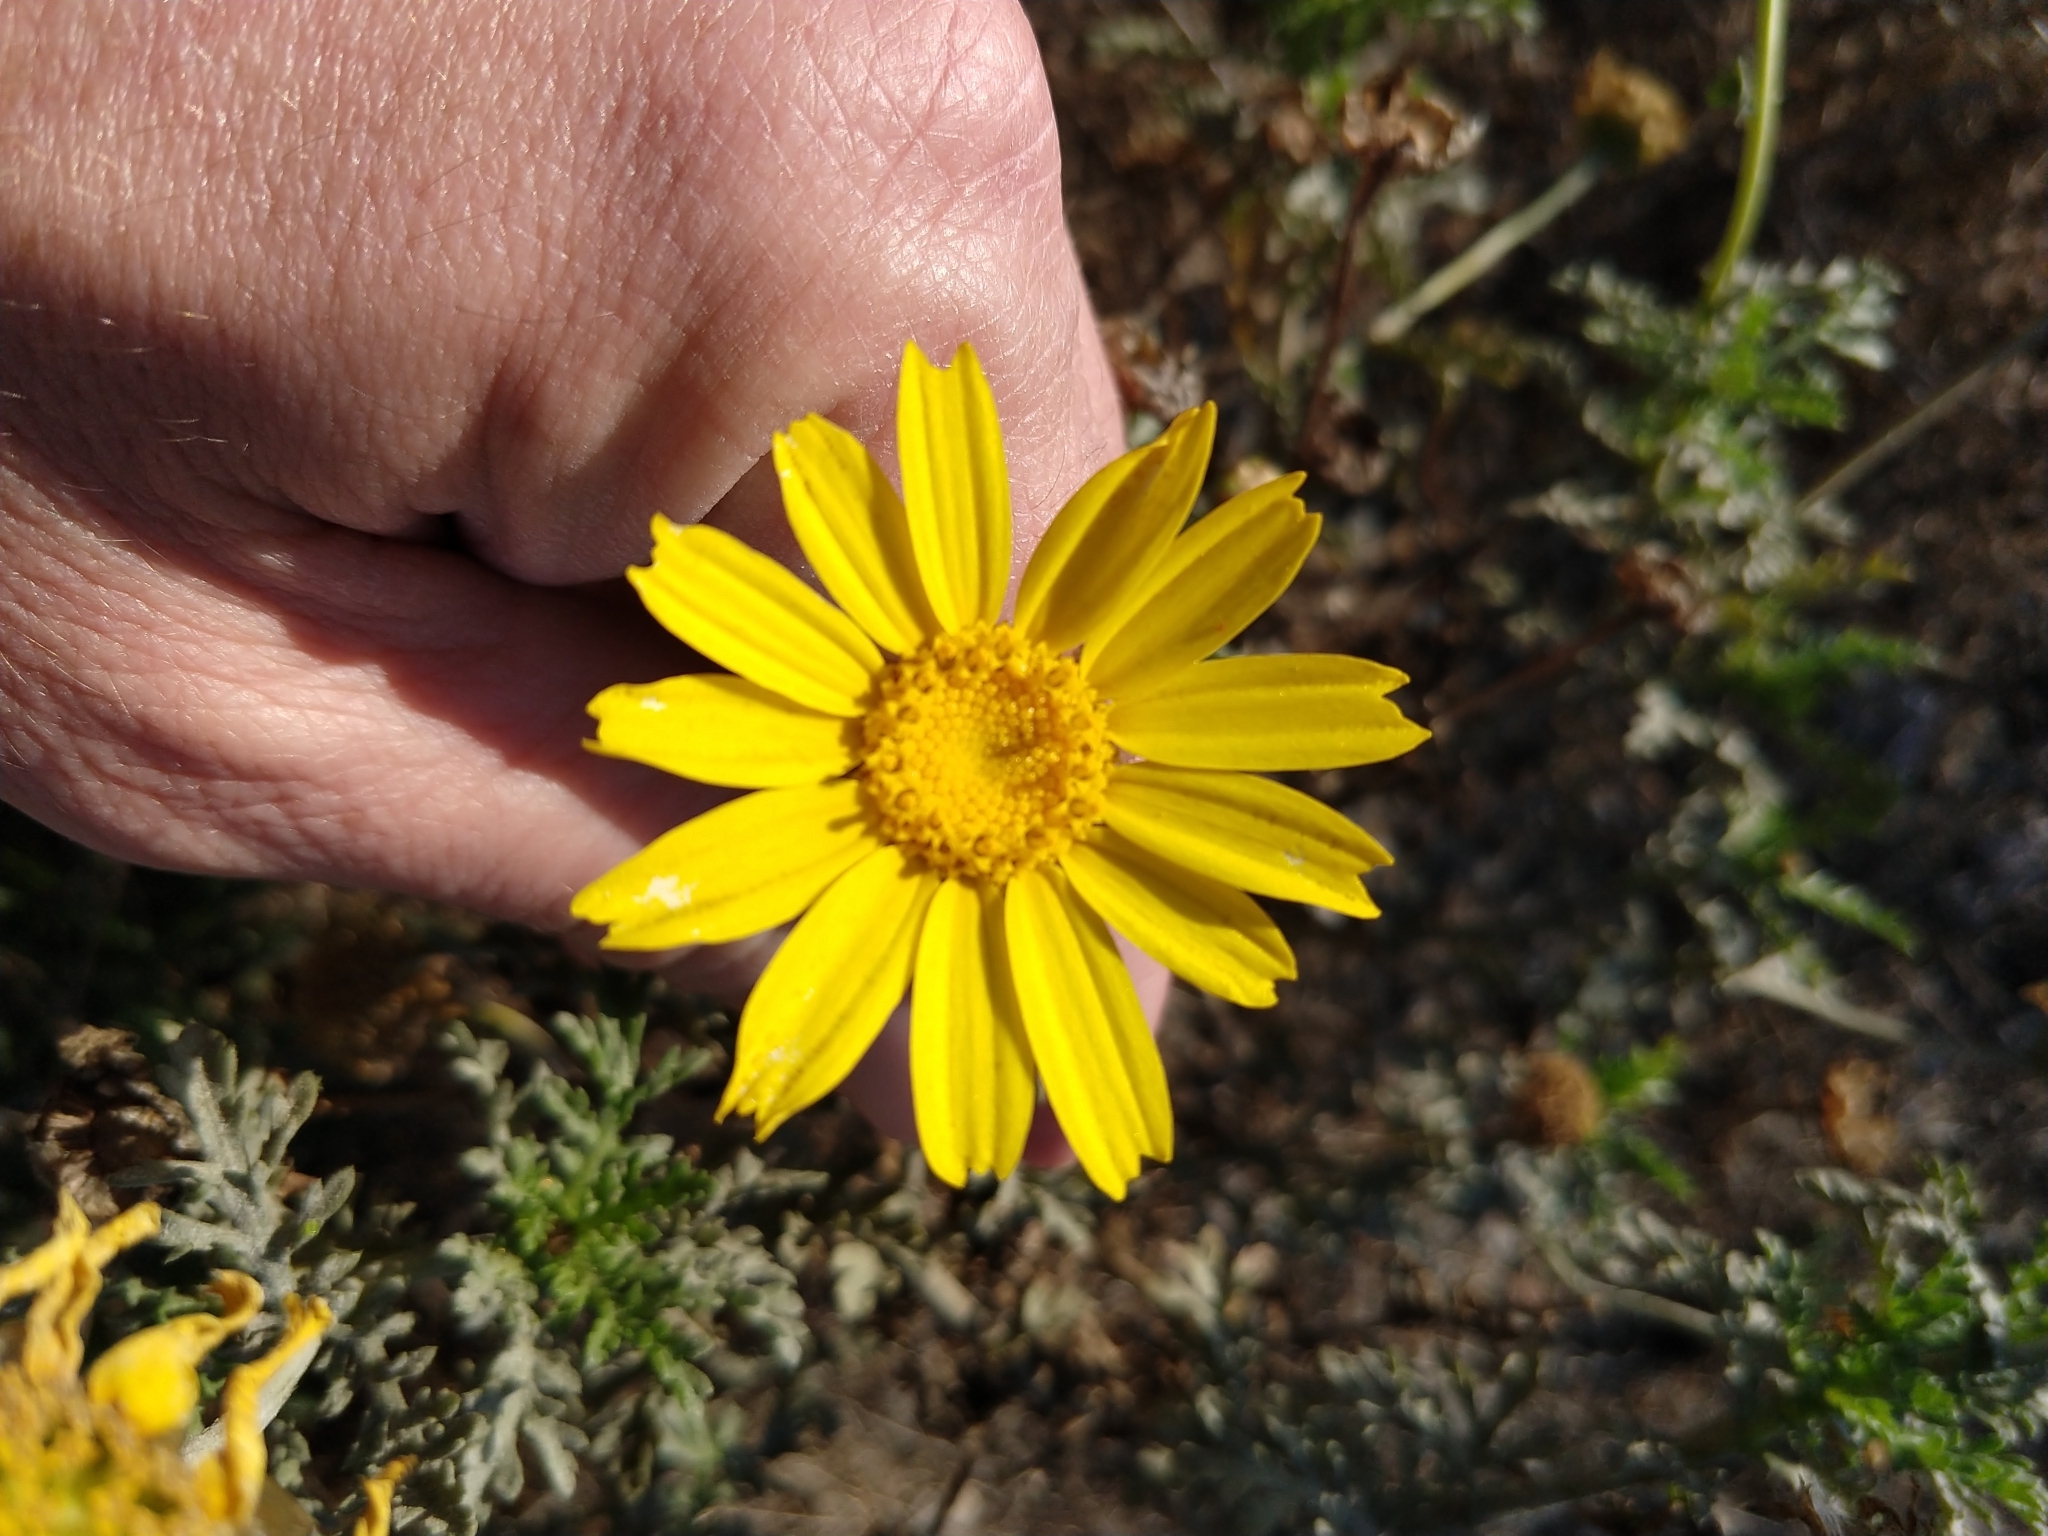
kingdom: Plantae
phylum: Tracheophyta
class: Magnoliopsida
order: Asterales
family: Asteraceae
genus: Glebionis
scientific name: Glebionis coronaria
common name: Crowndaisy
